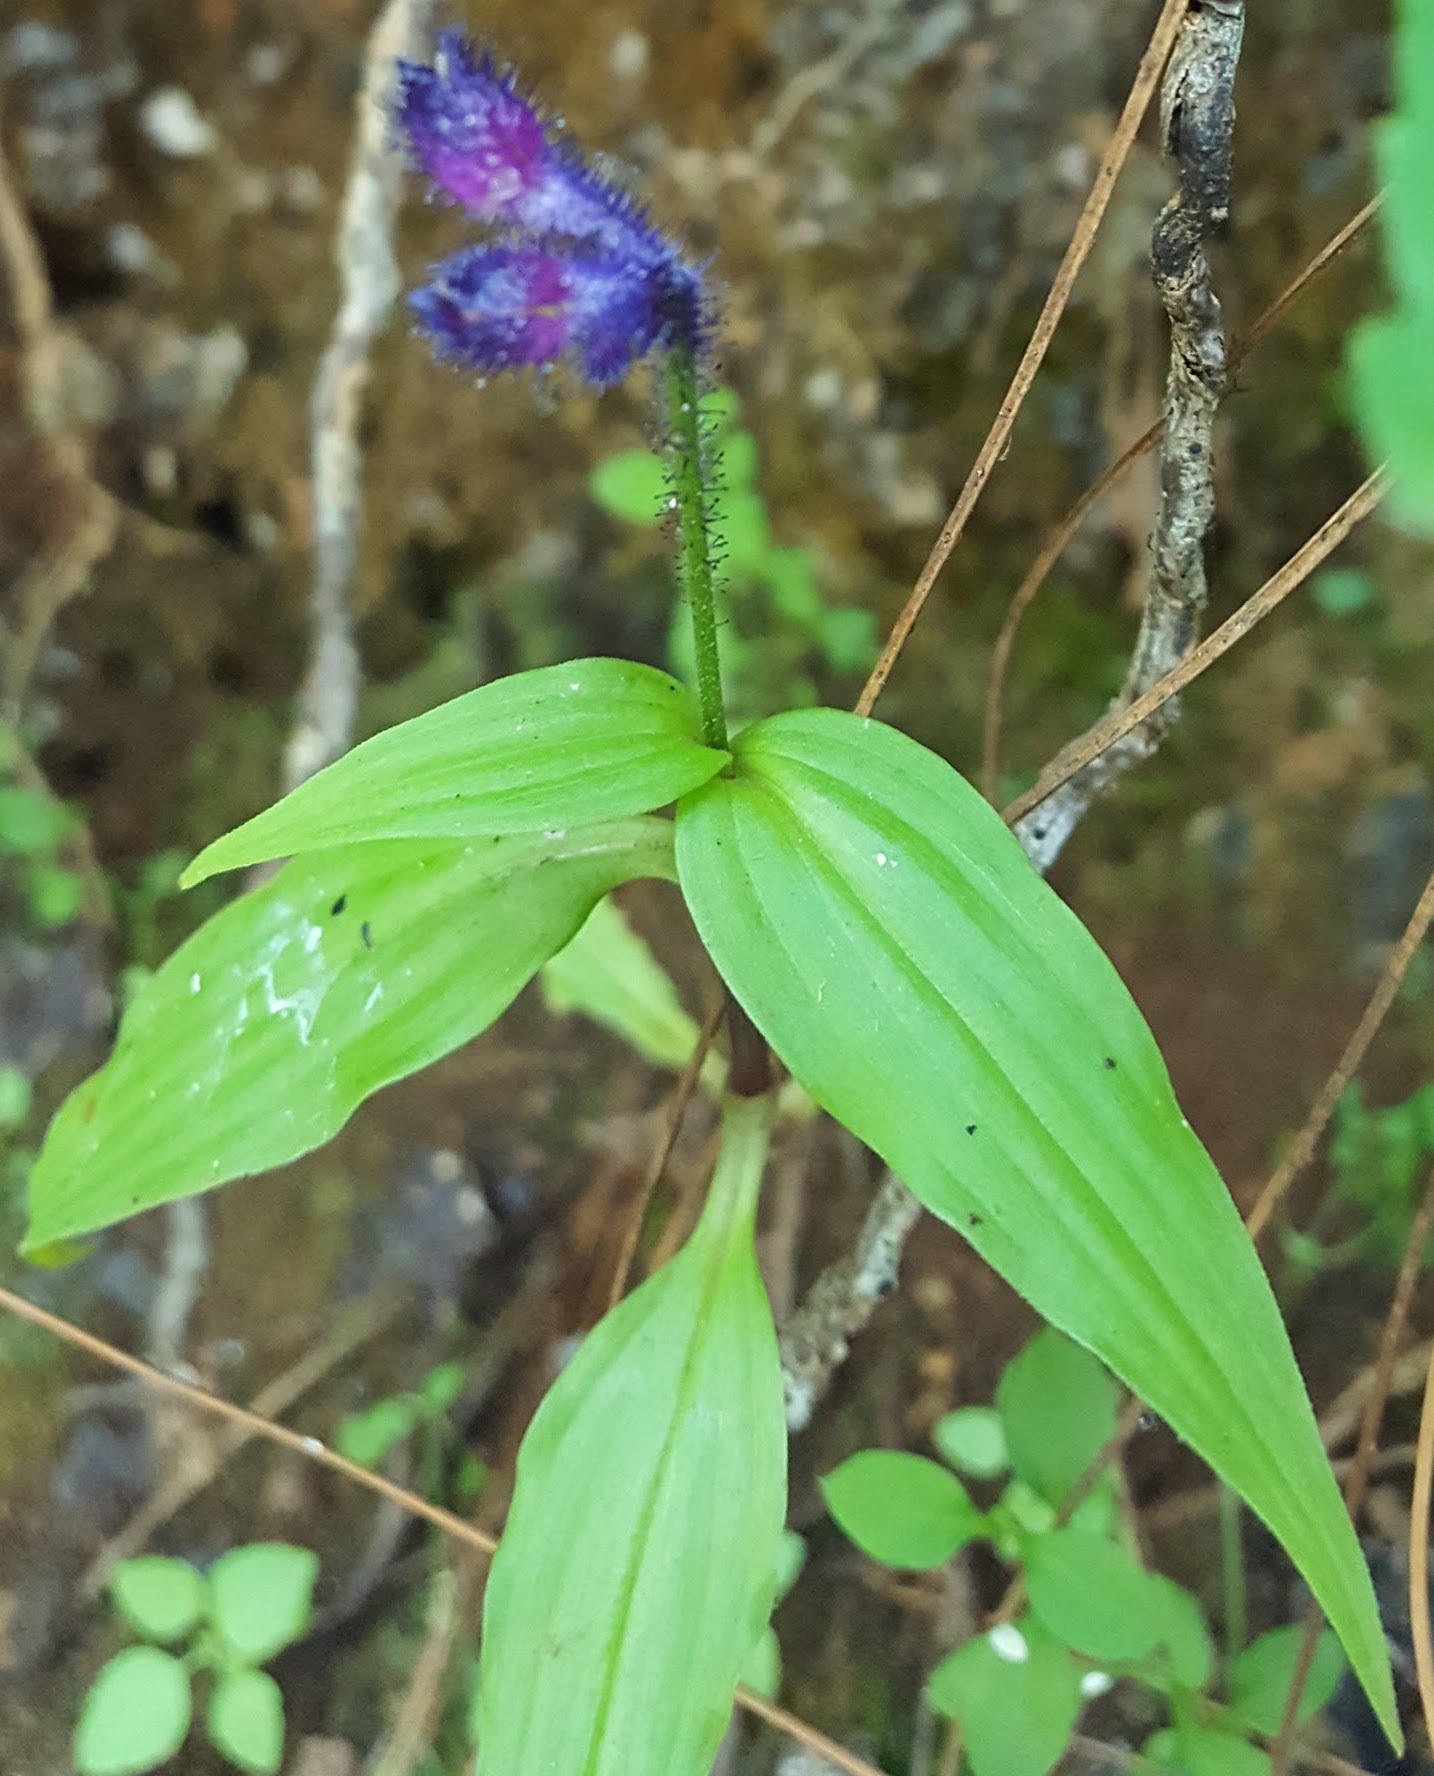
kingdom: Plantae
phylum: Tracheophyta
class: Liliopsida
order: Commelinales
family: Commelinaceae
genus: Tinantia
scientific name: Tinantia violacea
